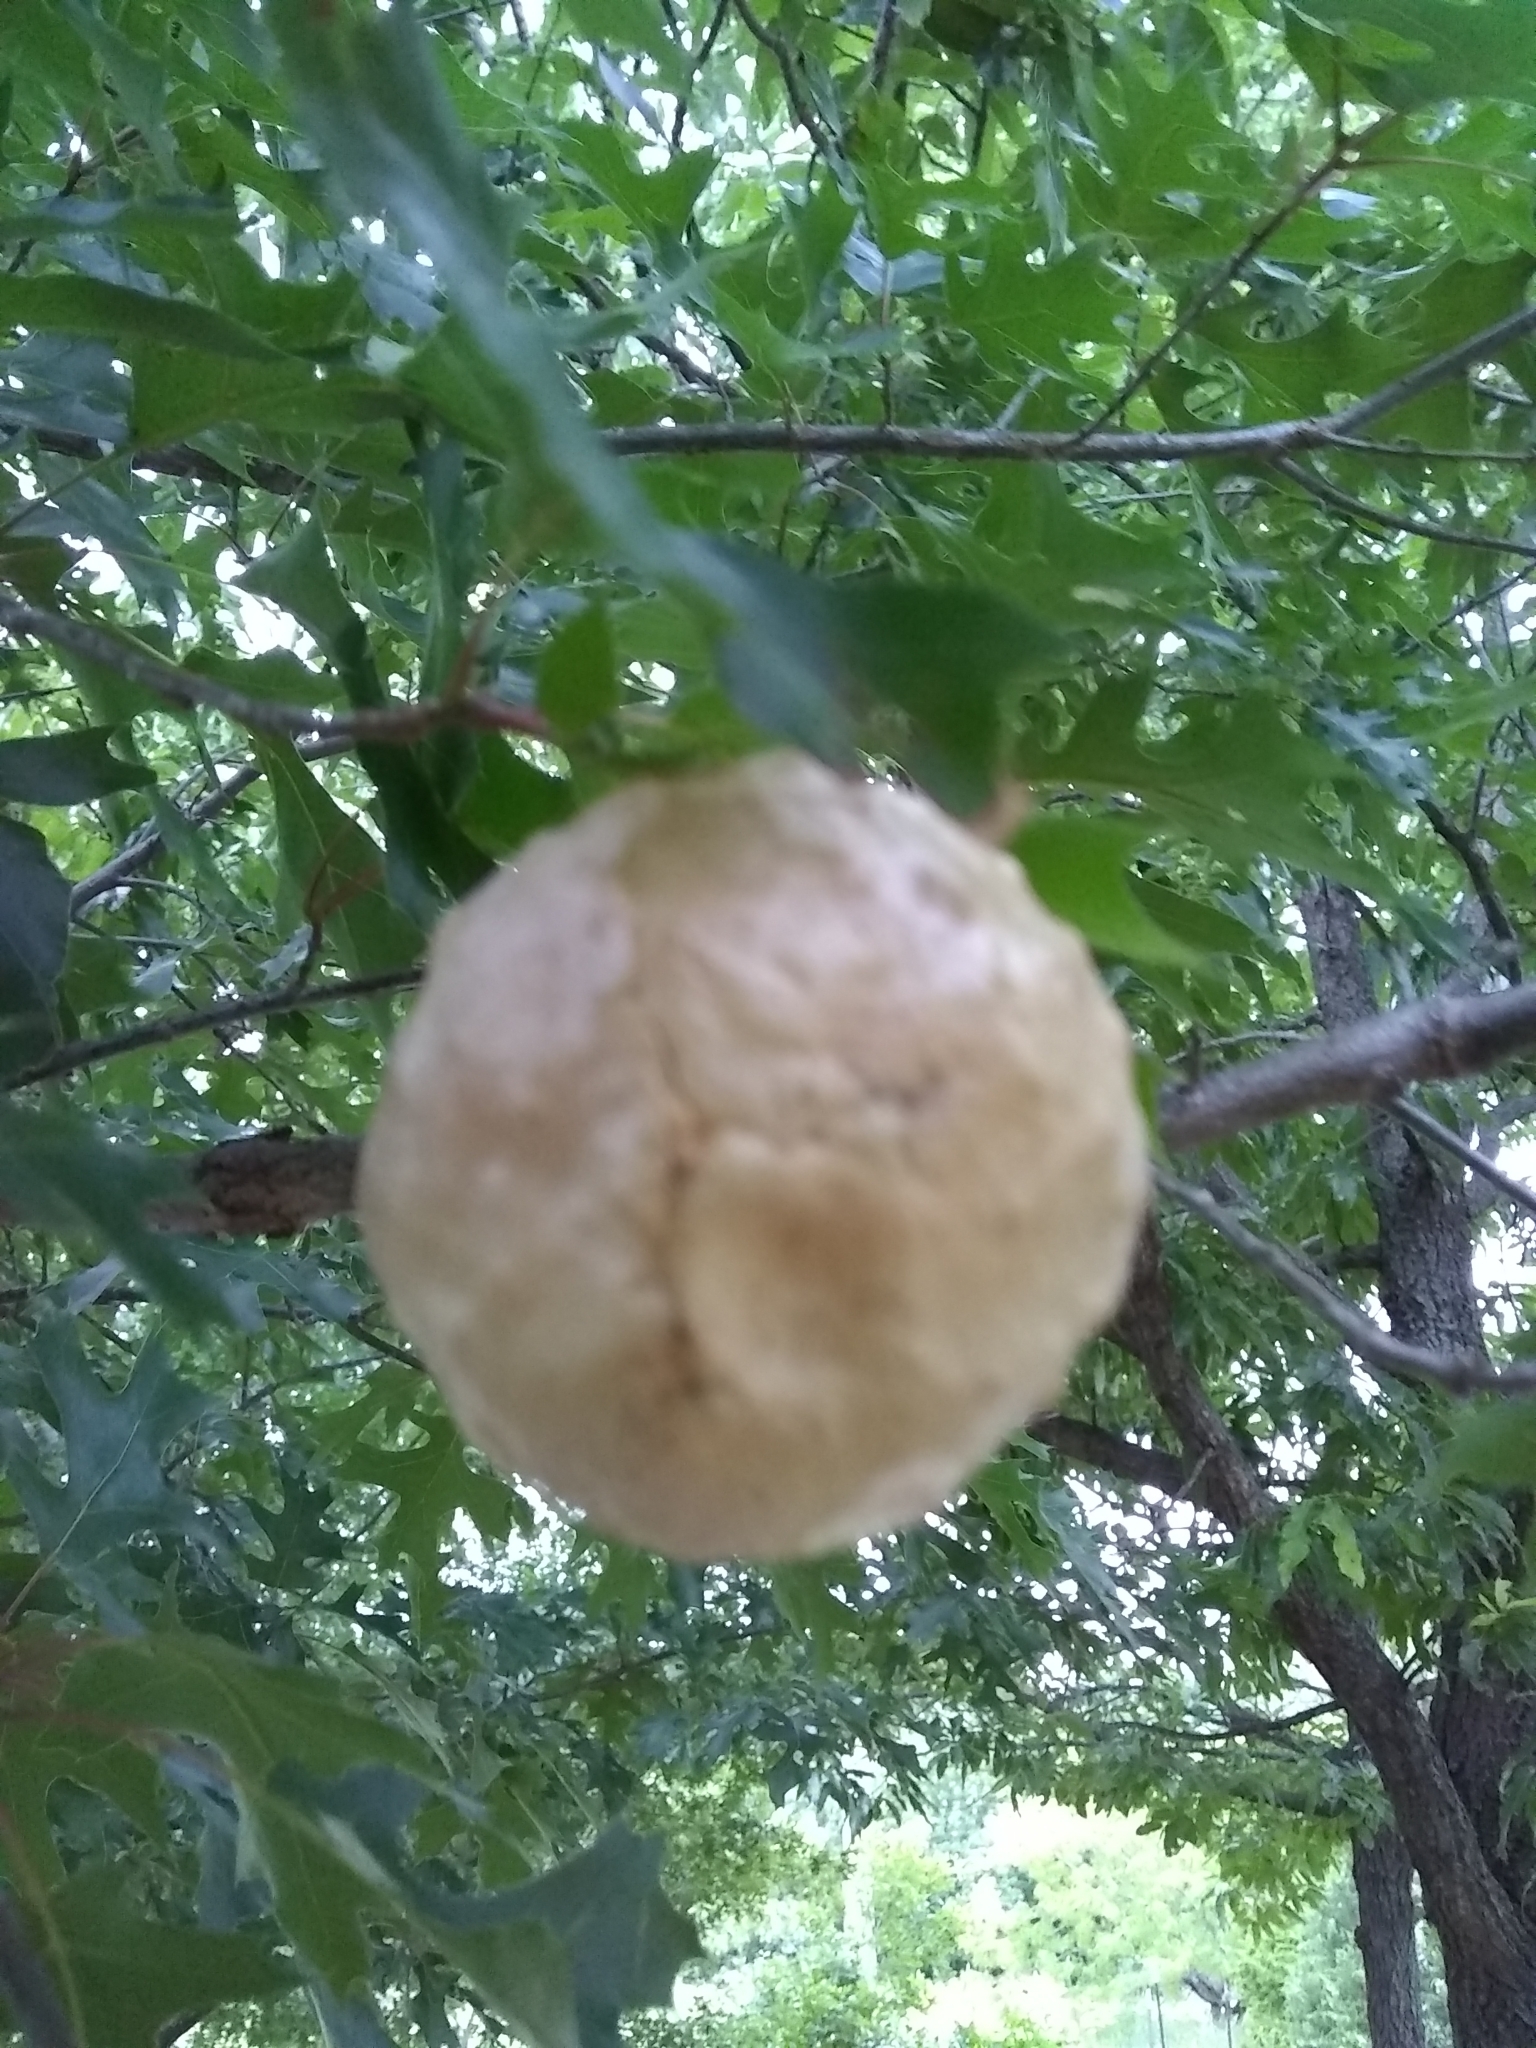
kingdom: Animalia
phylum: Arthropoda
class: Insecta
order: Hymenoptera
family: Cynipidae
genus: Amphibolips
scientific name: Amphibolips
